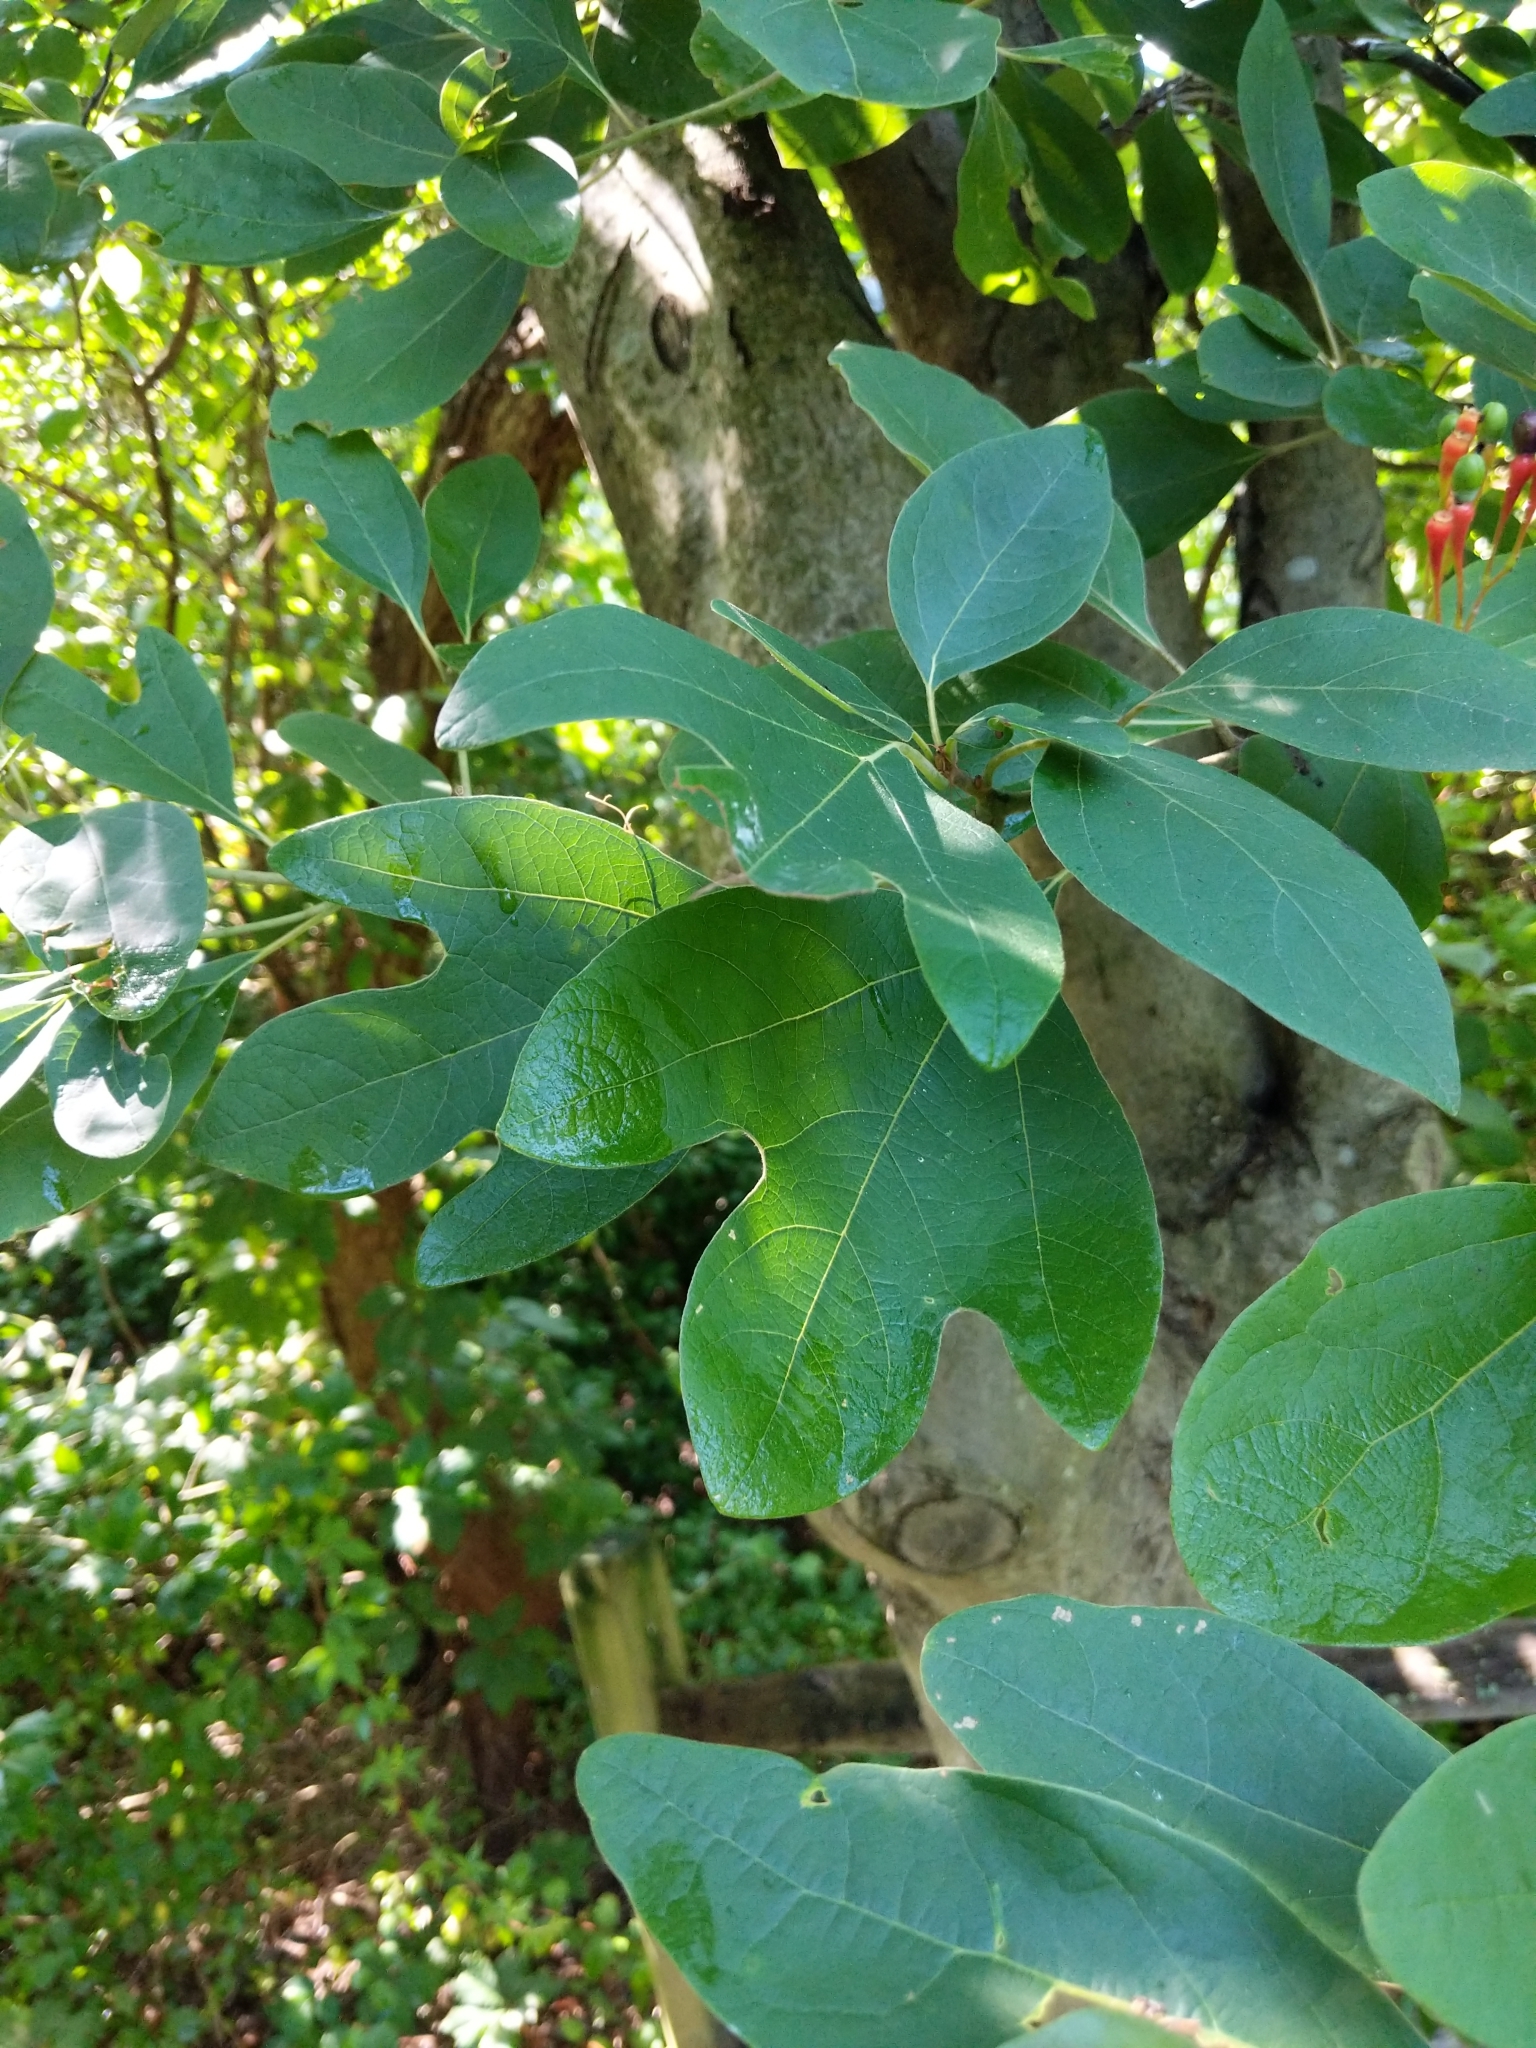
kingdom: Plantae
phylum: Tracheophyta
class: Magnoliopsida
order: Laurales
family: Lauraceae
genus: Sassafras
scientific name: Sassafras albidum
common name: Sassafras
